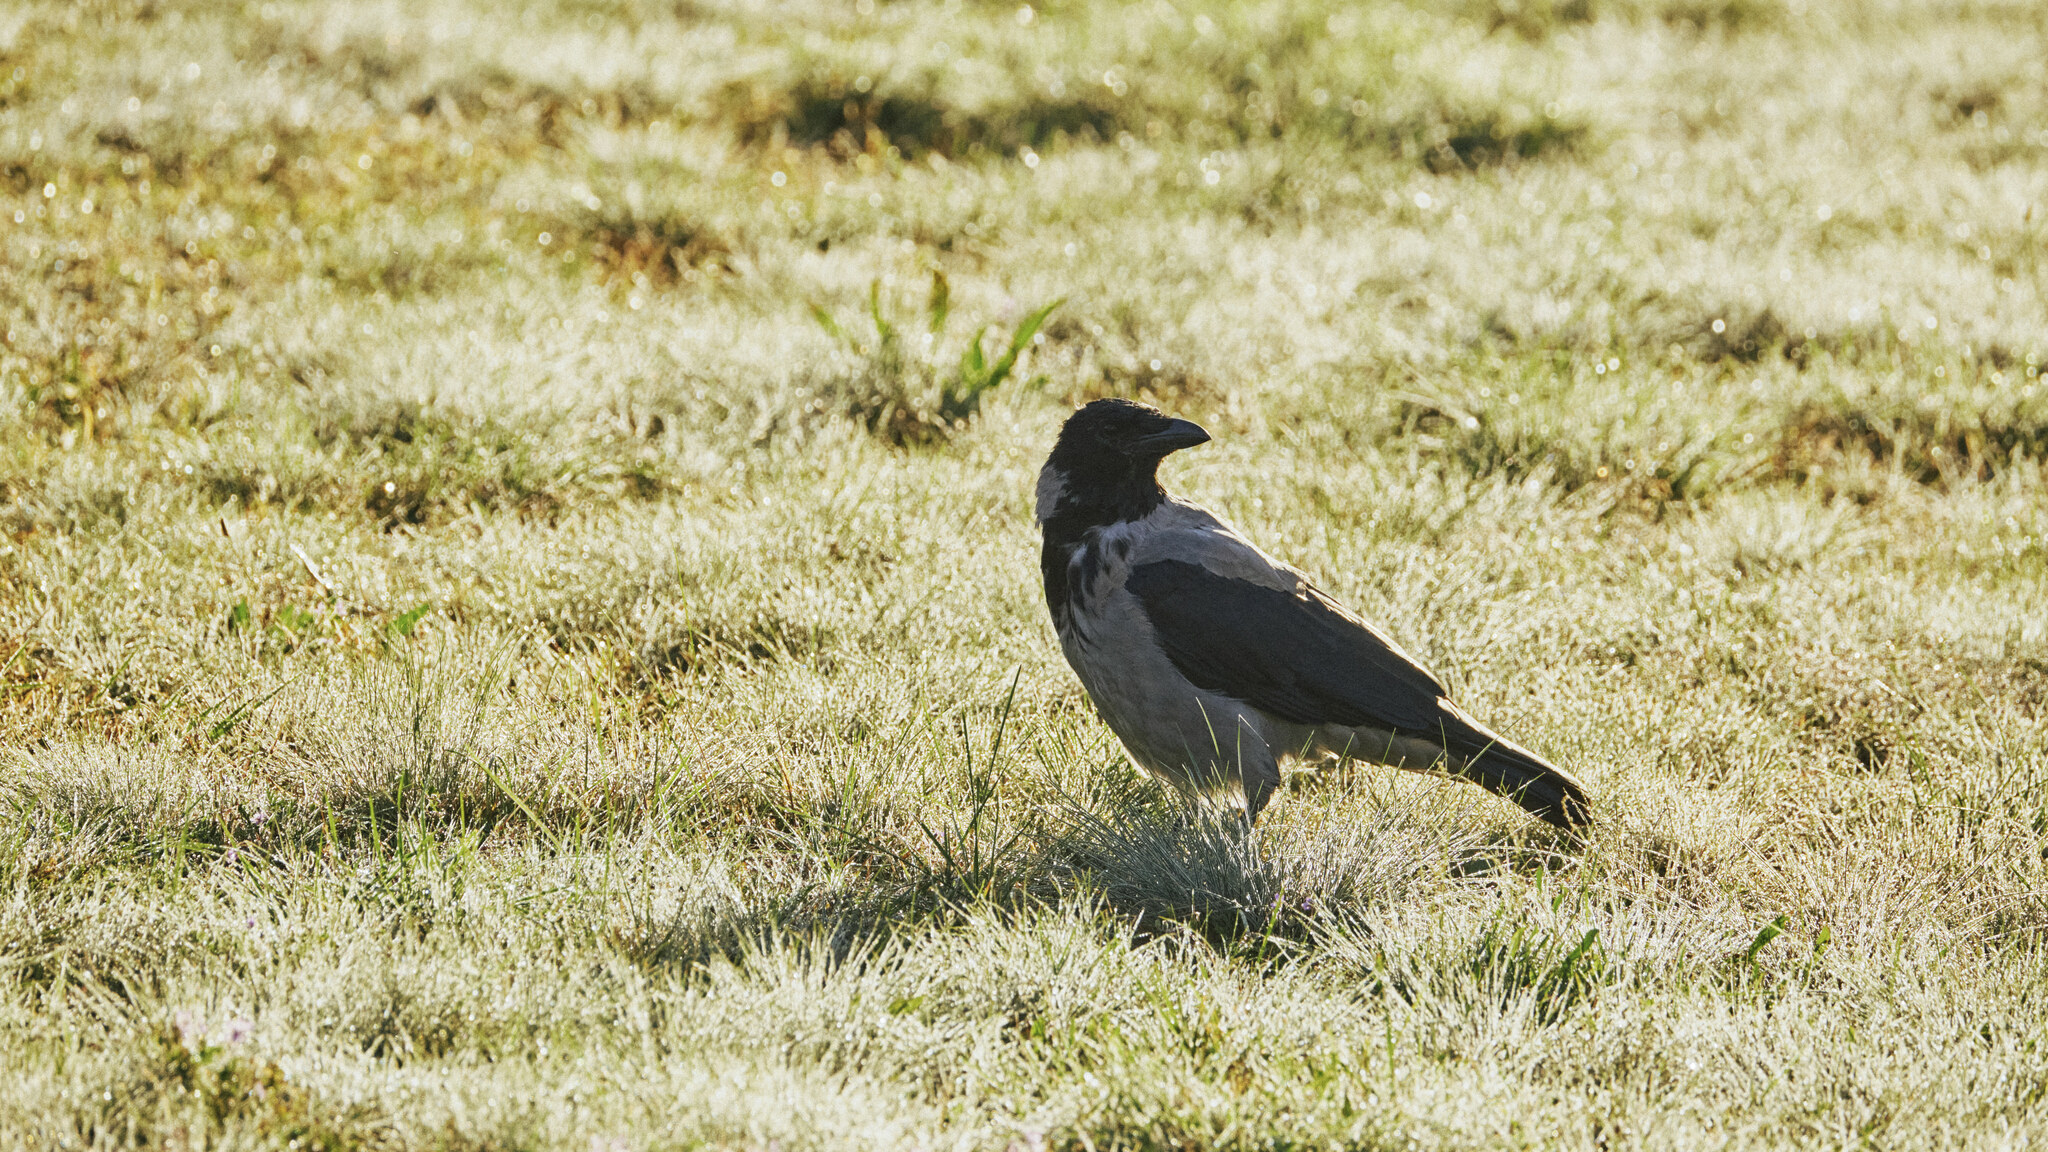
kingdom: Animalia
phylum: Chordata
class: Aves
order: Passeriformes
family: Corvidae
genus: Corvus
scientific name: Corvus cornix
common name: Hooded crow
